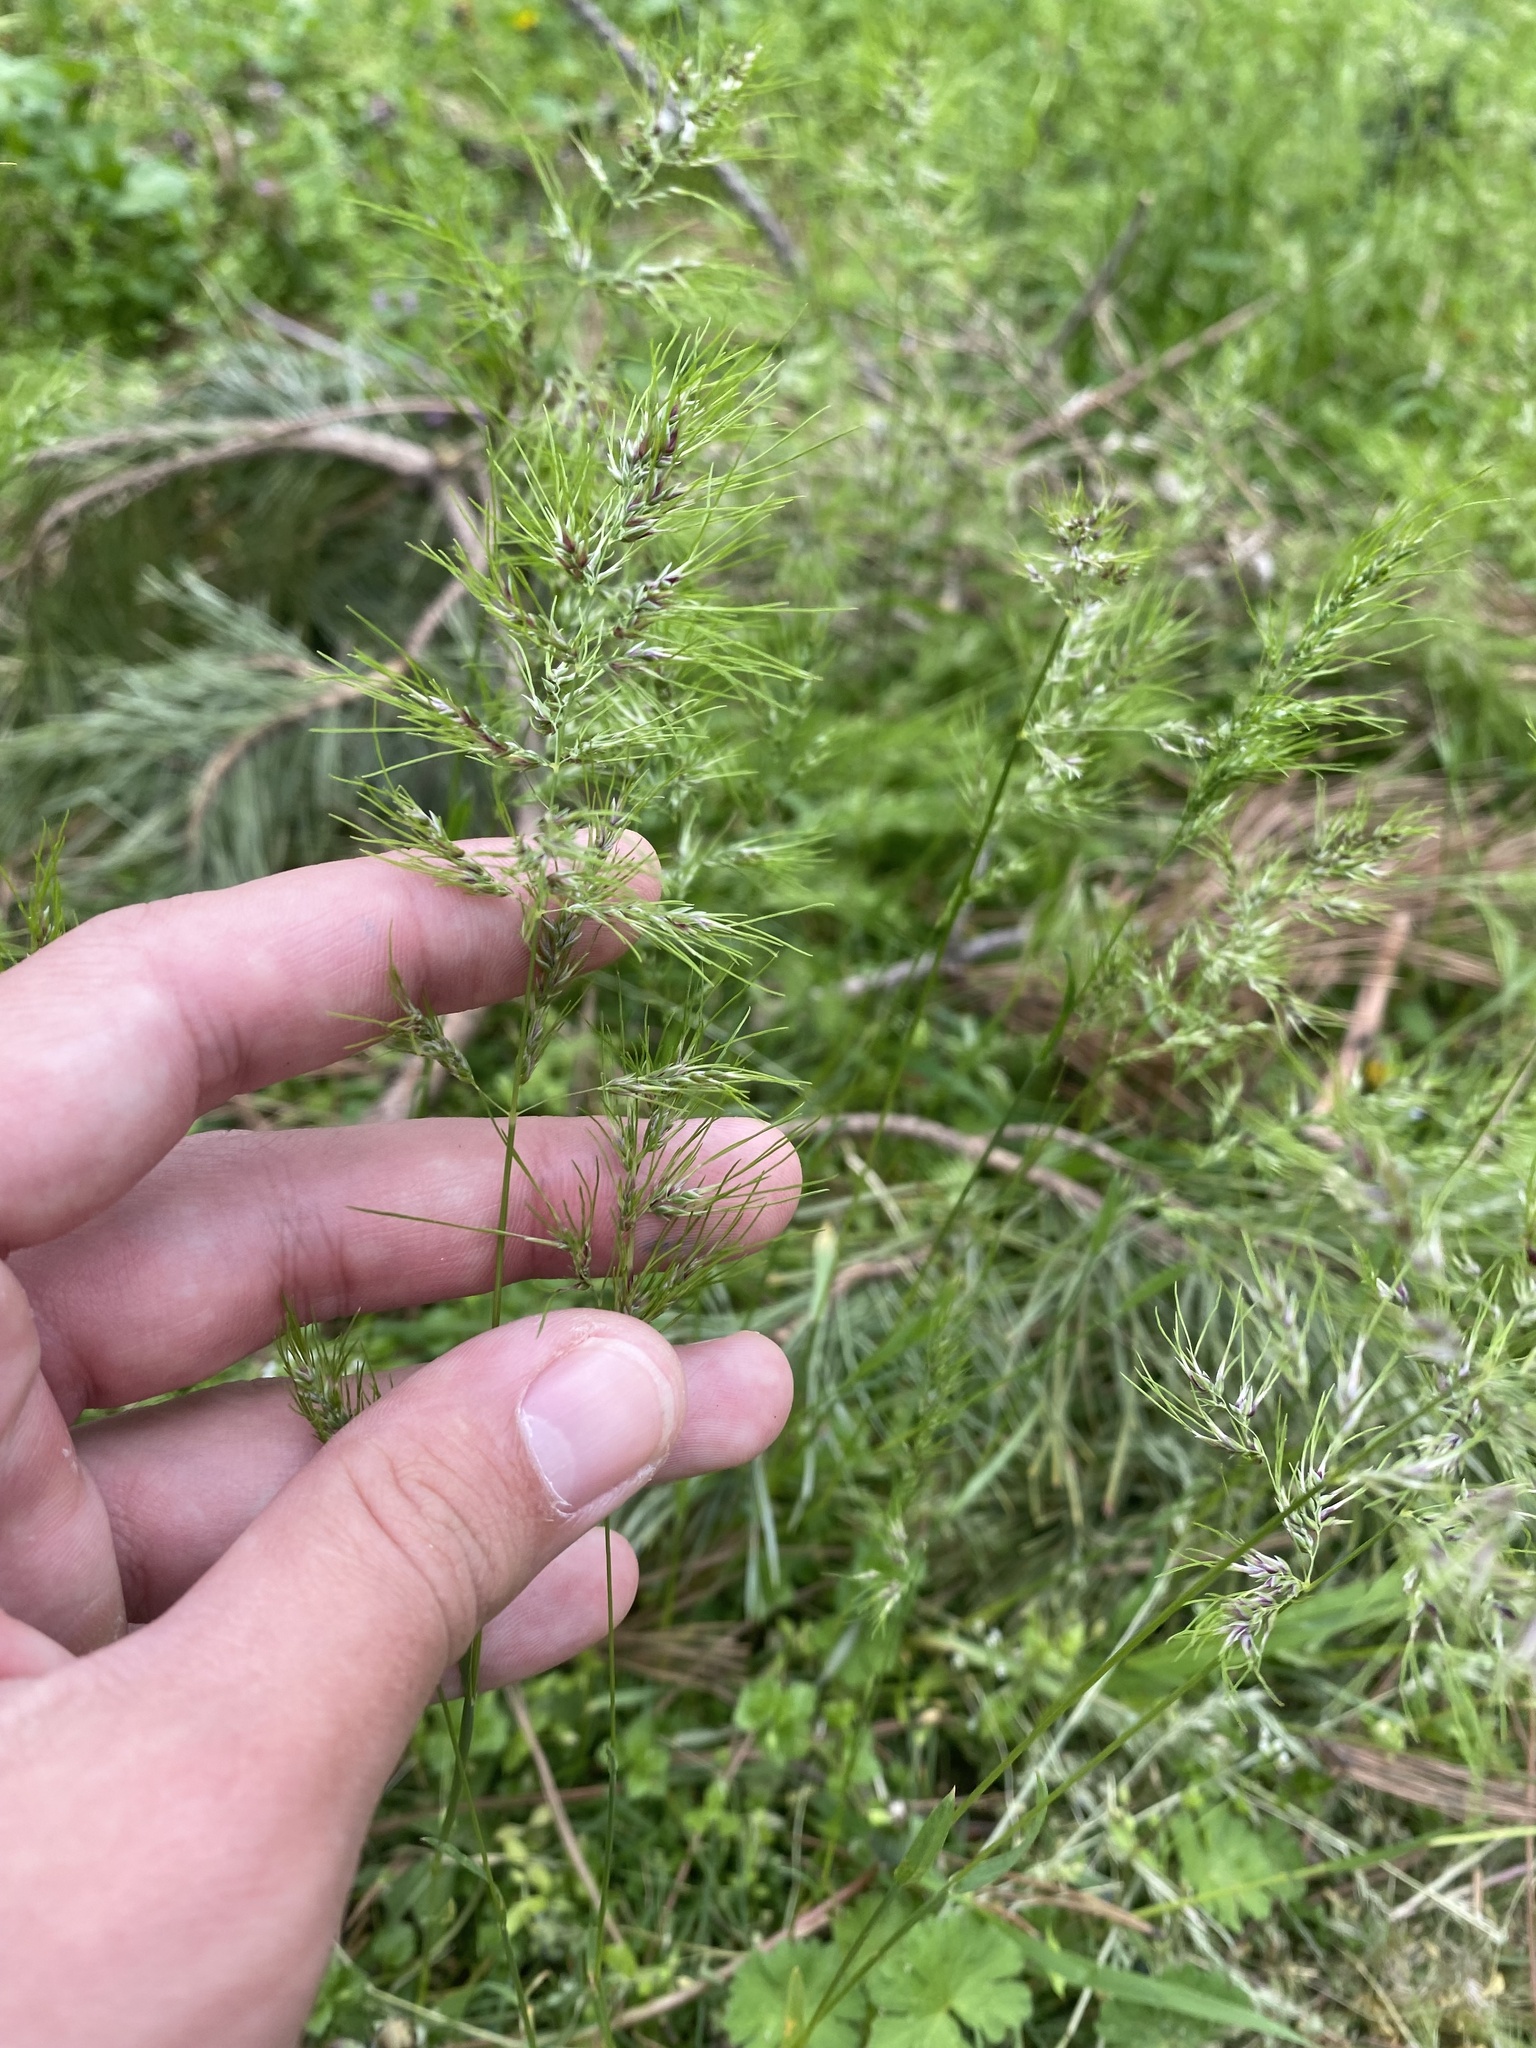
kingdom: Plantae
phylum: Tracheophyta
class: Liliopsida
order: Poales
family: Poaceae
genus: Poa
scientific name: Poa bulbosa
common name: Bulbous bluegrass
